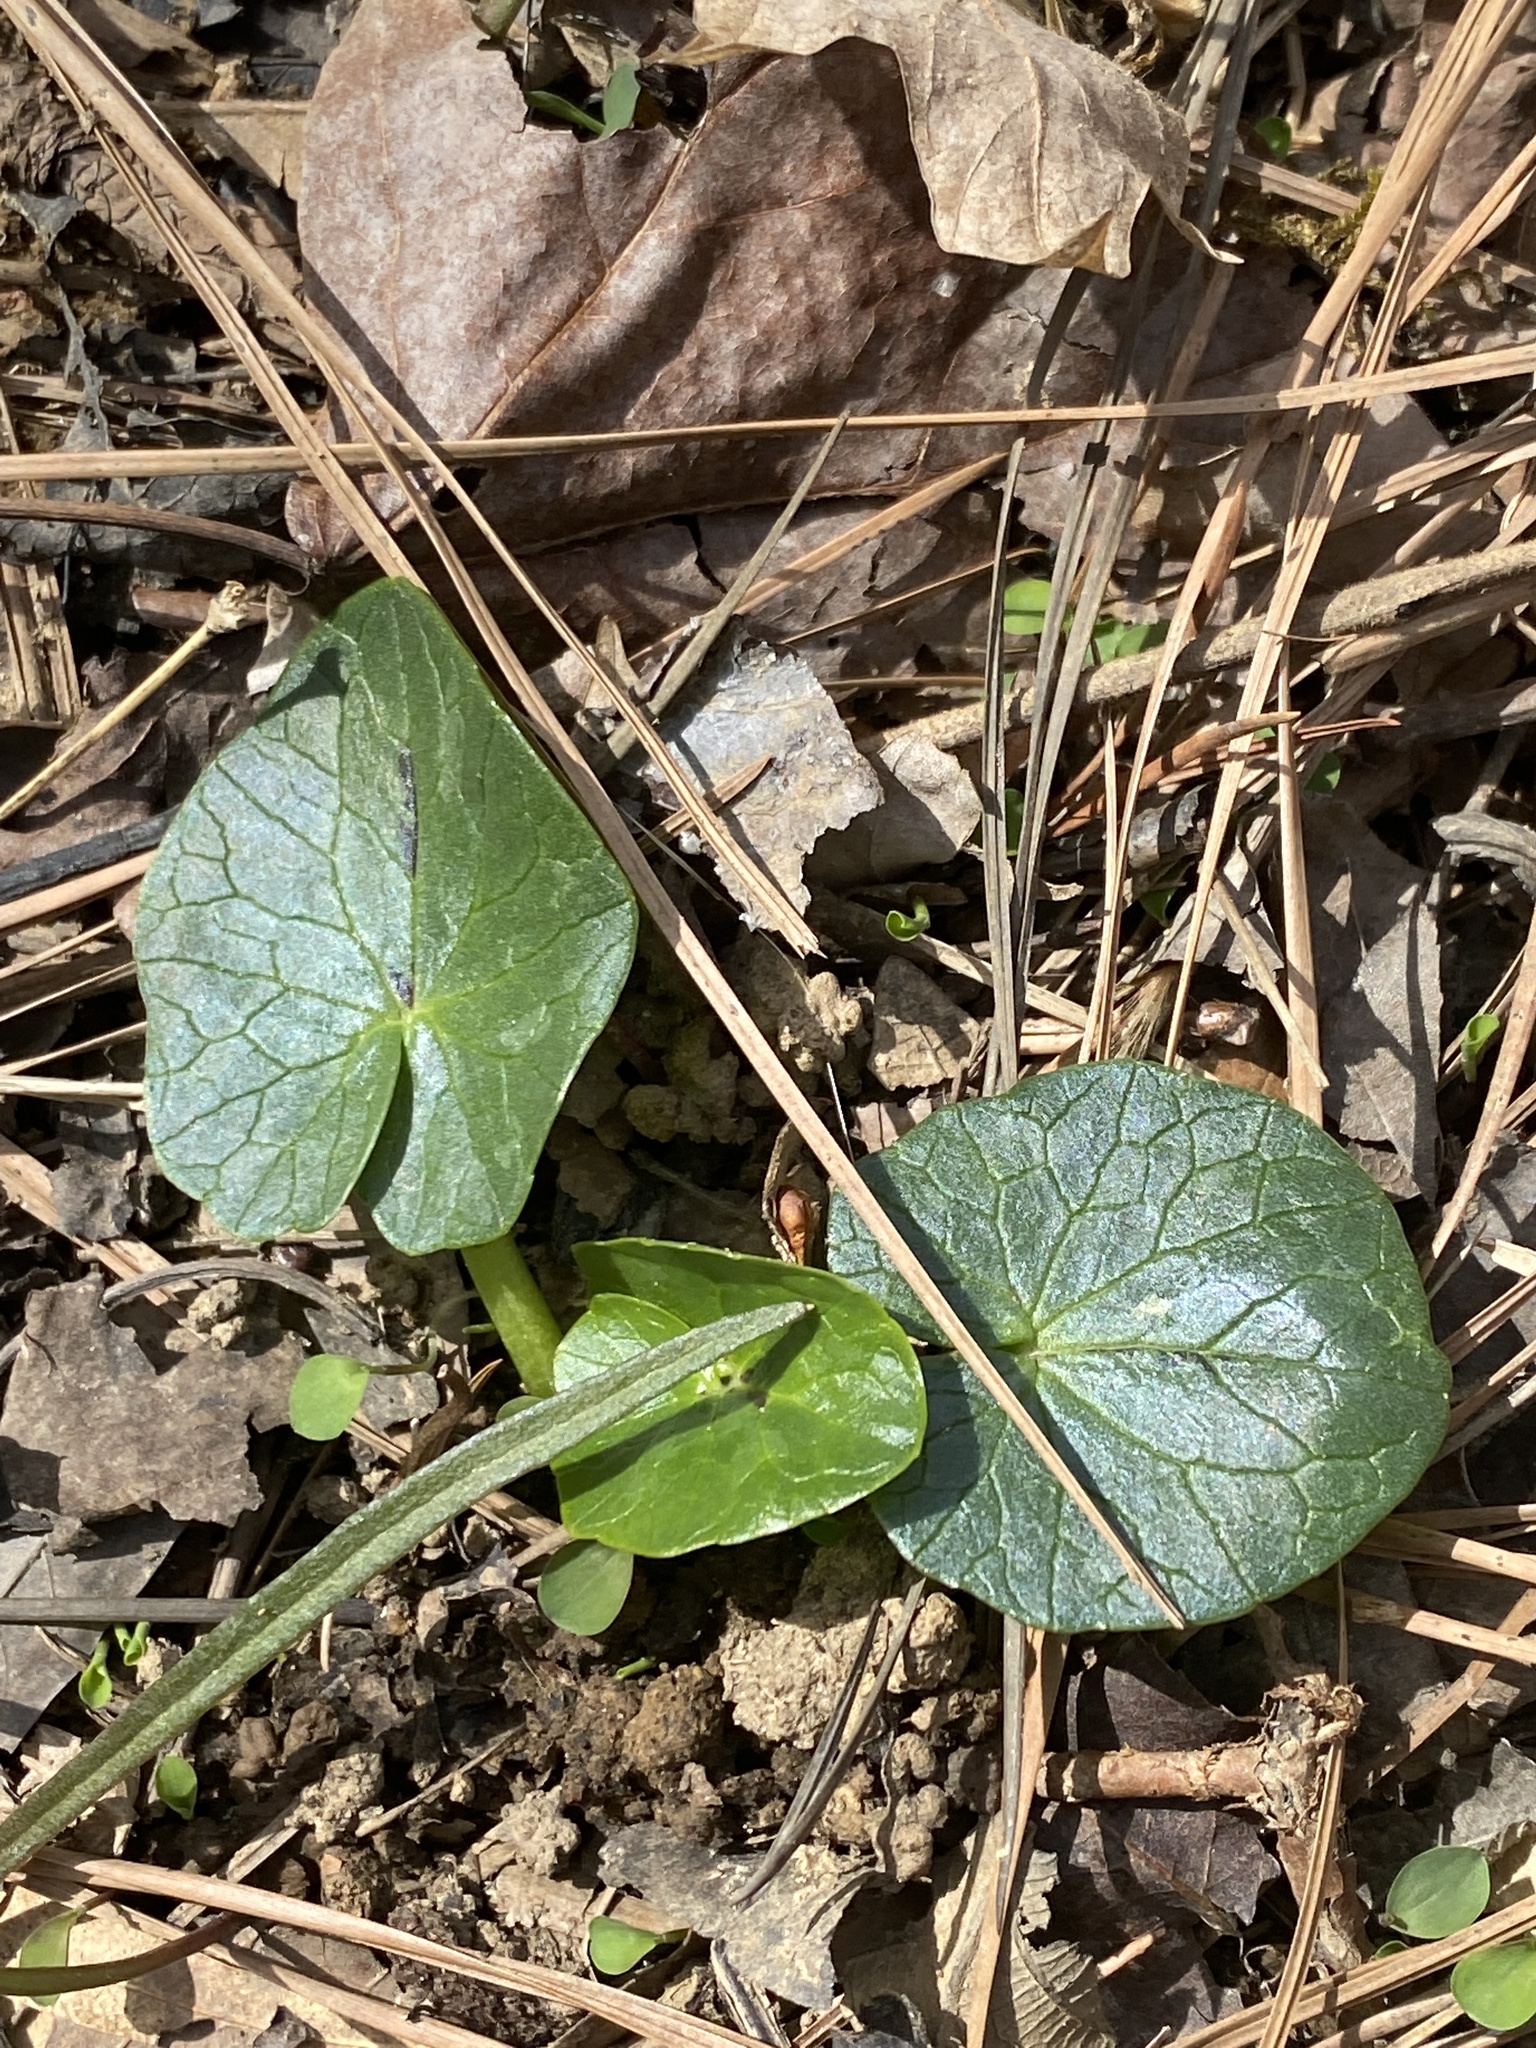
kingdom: Plantae
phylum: Tracheophyta
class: Magnoliopsida
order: Ranunculales
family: Ranunculaceae
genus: Ficaria
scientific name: Ficaria verna
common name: Lesser celandine
